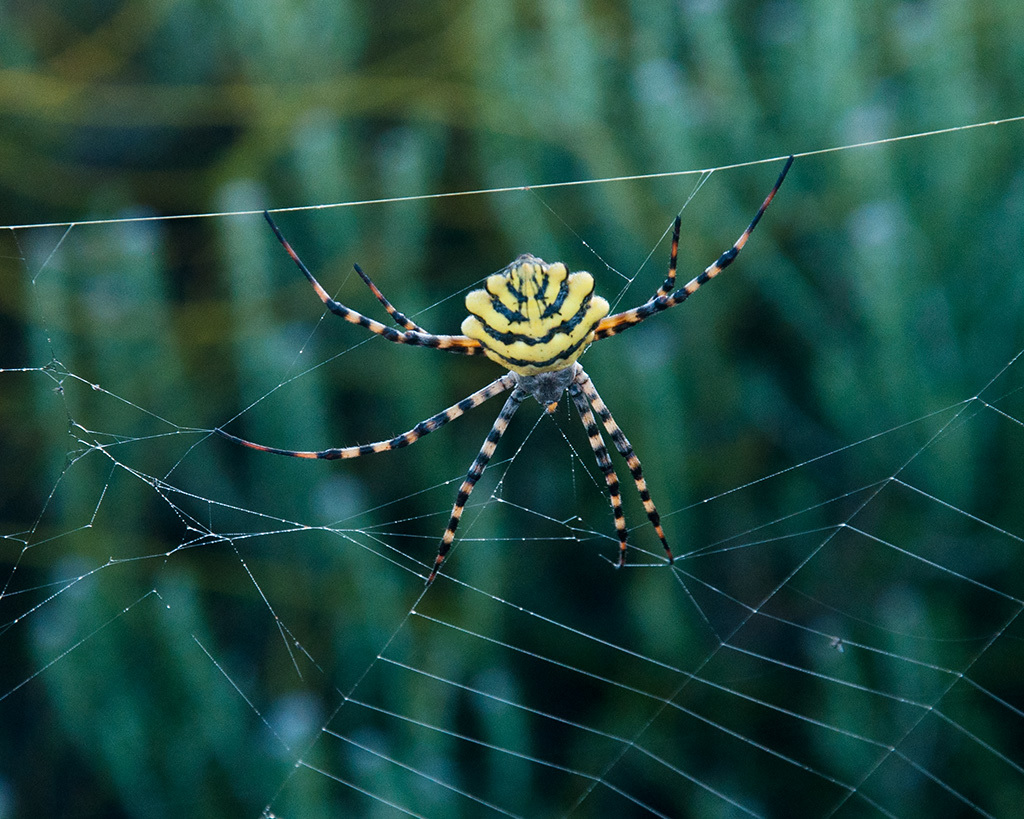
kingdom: Animalia
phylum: Arthropoda
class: Arachnida
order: Araneae
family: Araneidae
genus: Argiope
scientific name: Argiope australis
